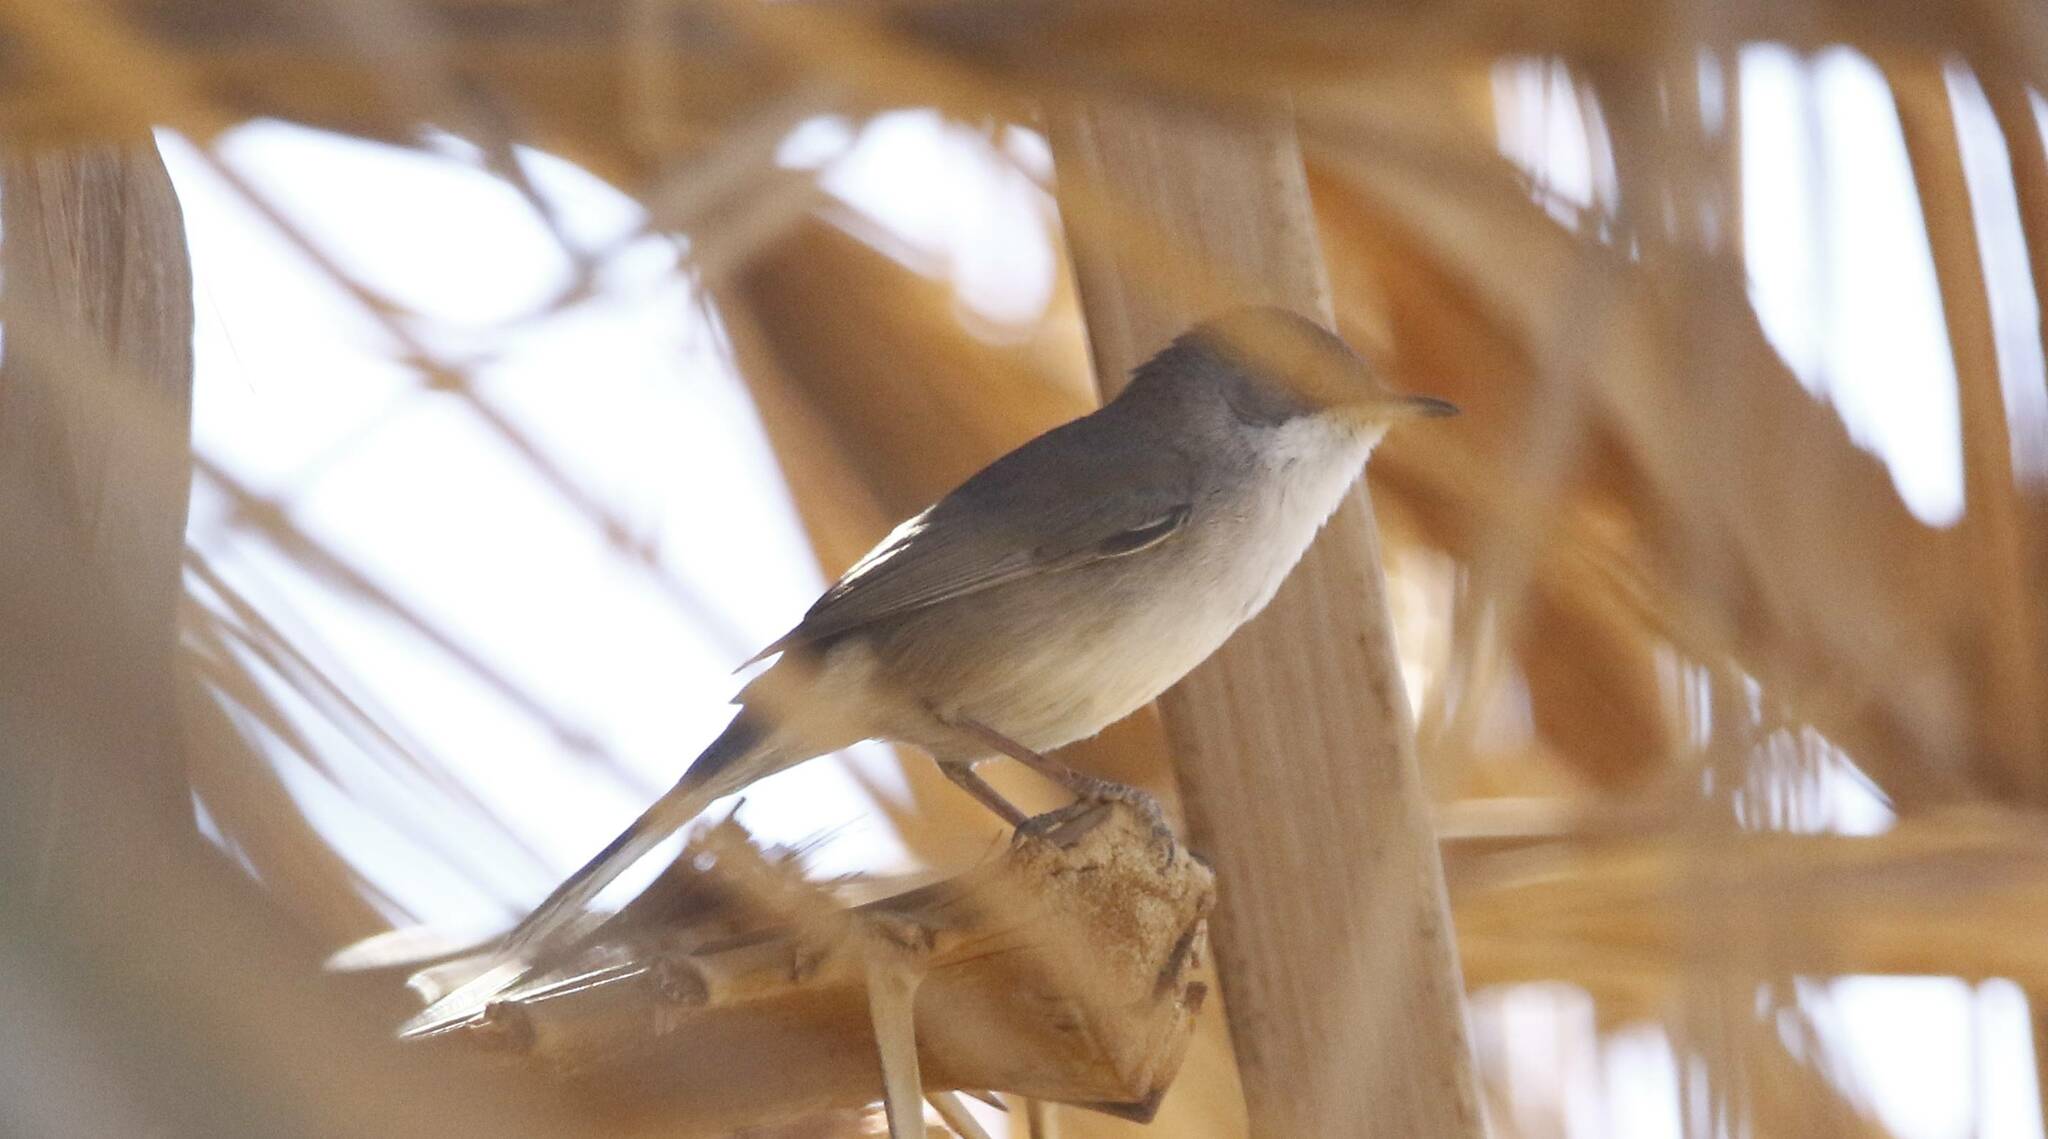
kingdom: Animalia
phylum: Chordata
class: Aves
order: Passeriformes
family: Sylviidae
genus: Curruca
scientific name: Curruca melanocephala
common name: Sardinian warbler
